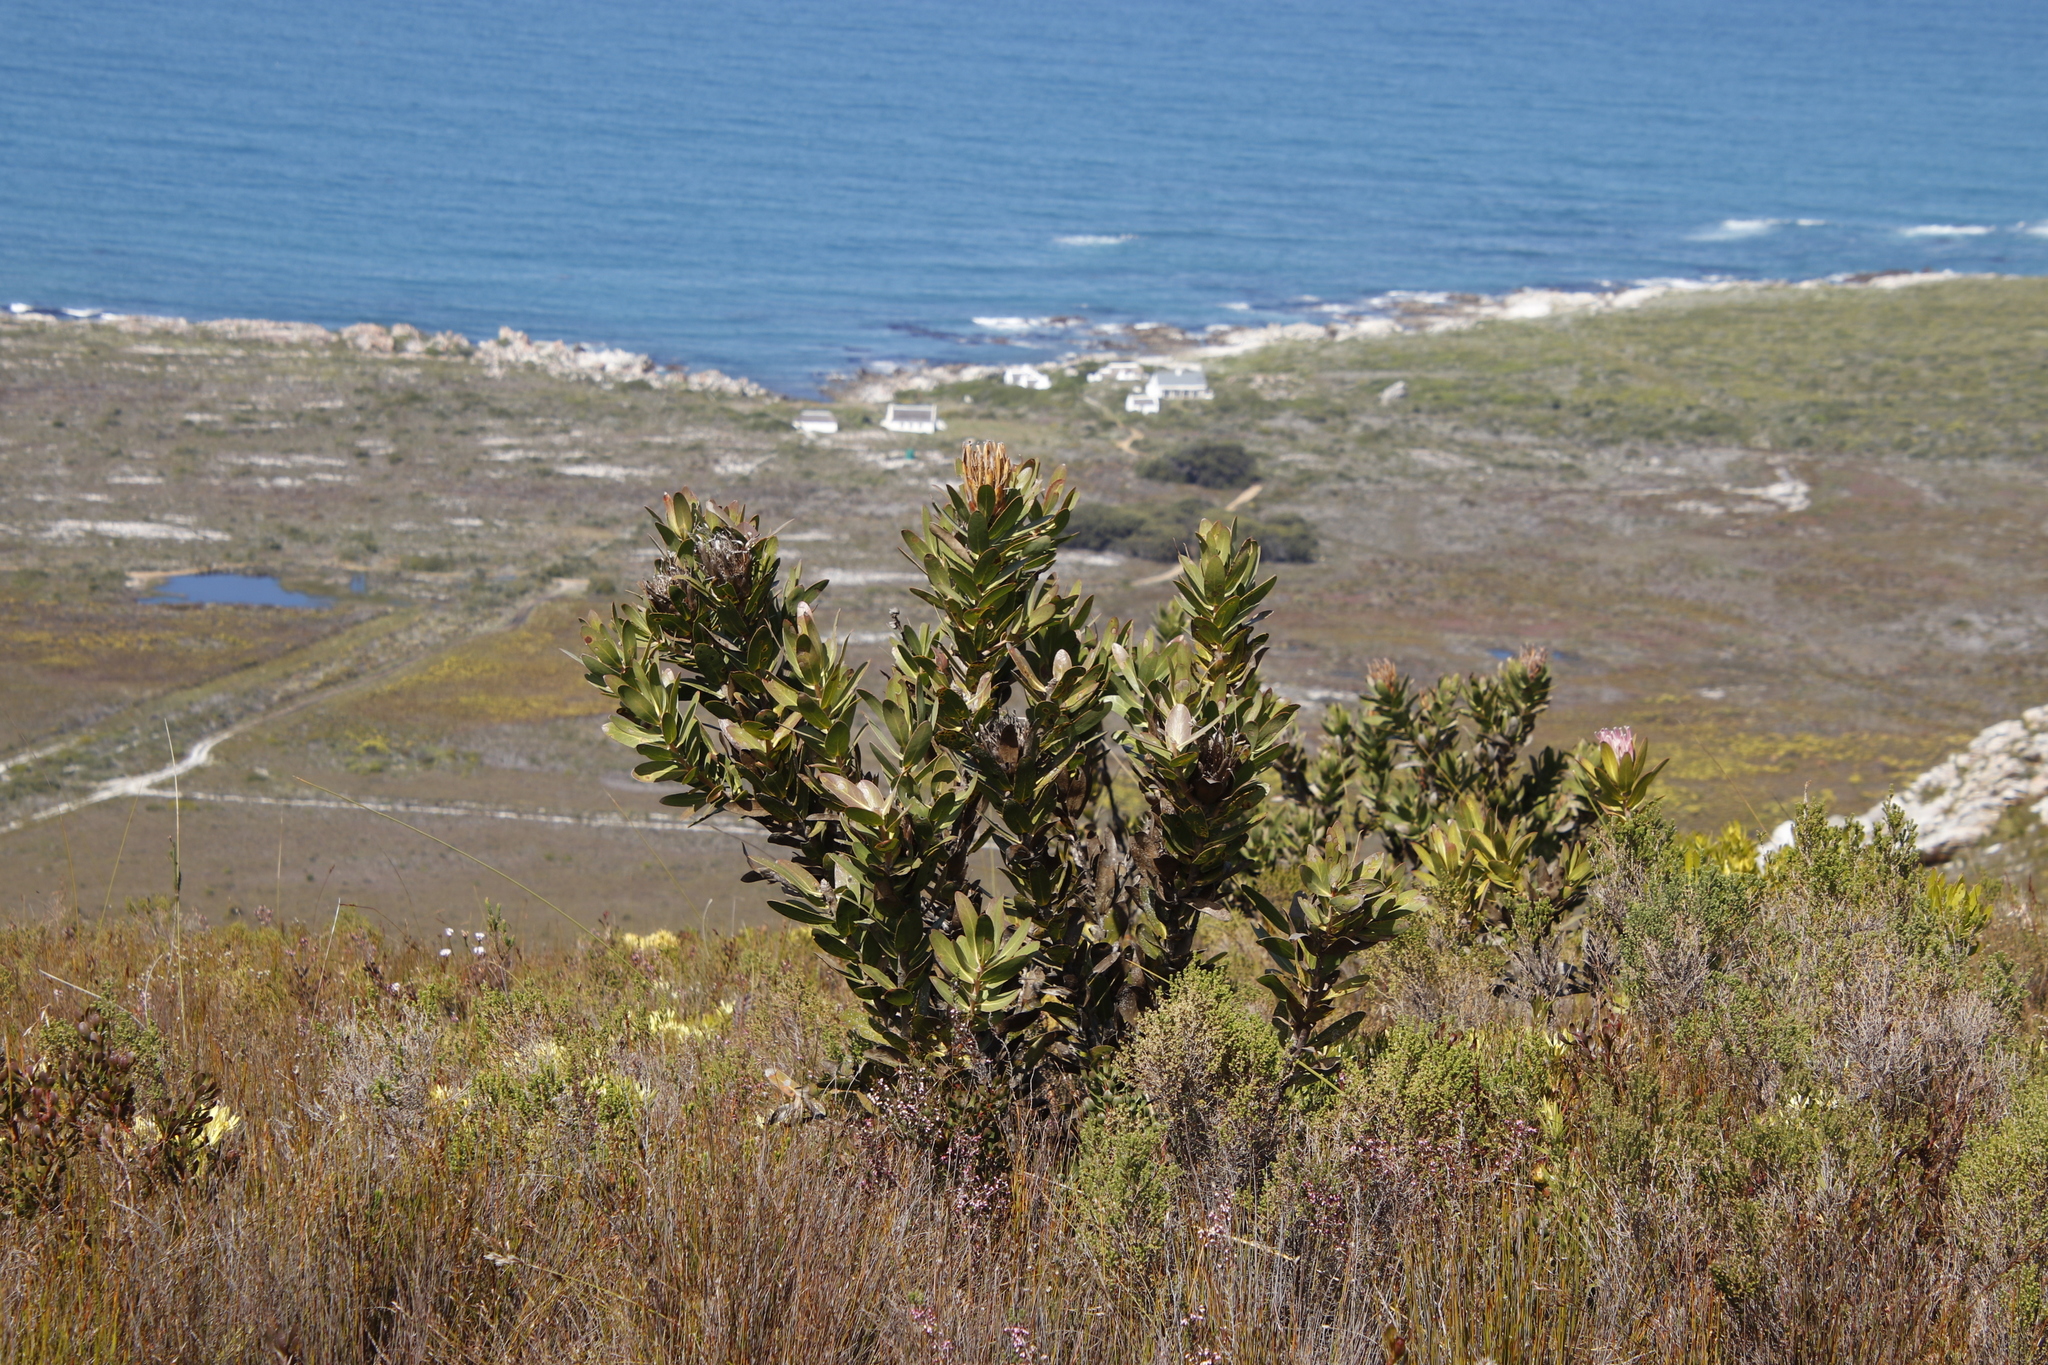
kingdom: Plantae
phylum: Tracheophyta
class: Magnoliopsida
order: Proteales
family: Proteaceae
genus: Protea
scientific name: Protea compacta
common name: Bot river protea
